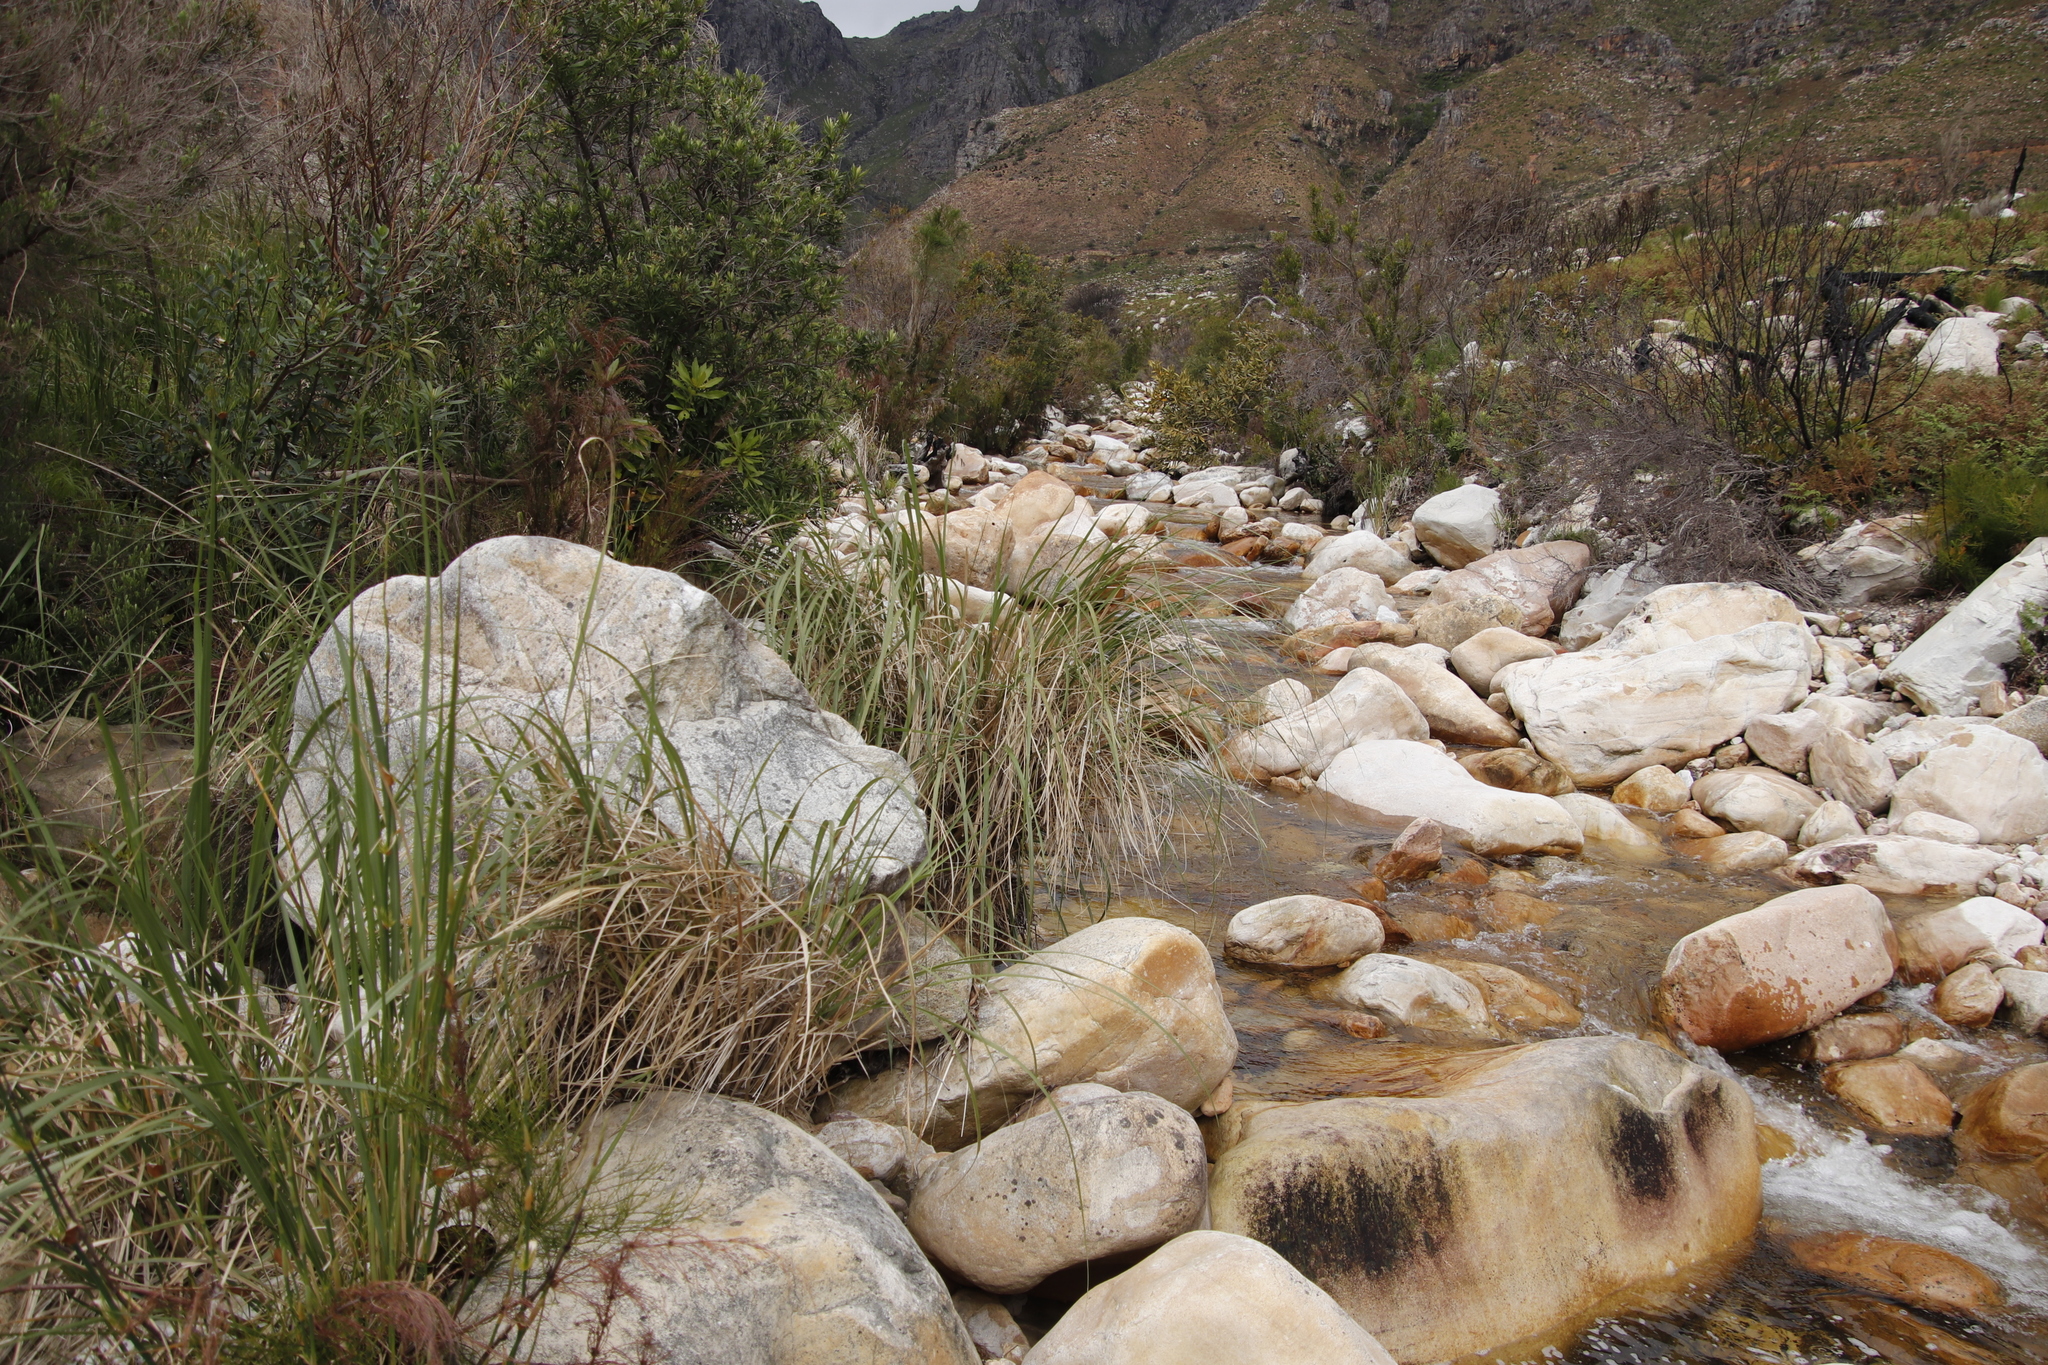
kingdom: Plantae
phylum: Tracheophyta
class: Liliopsida
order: Poales
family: Poaceae
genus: Cenchrus
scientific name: Cenchrus caudatus
